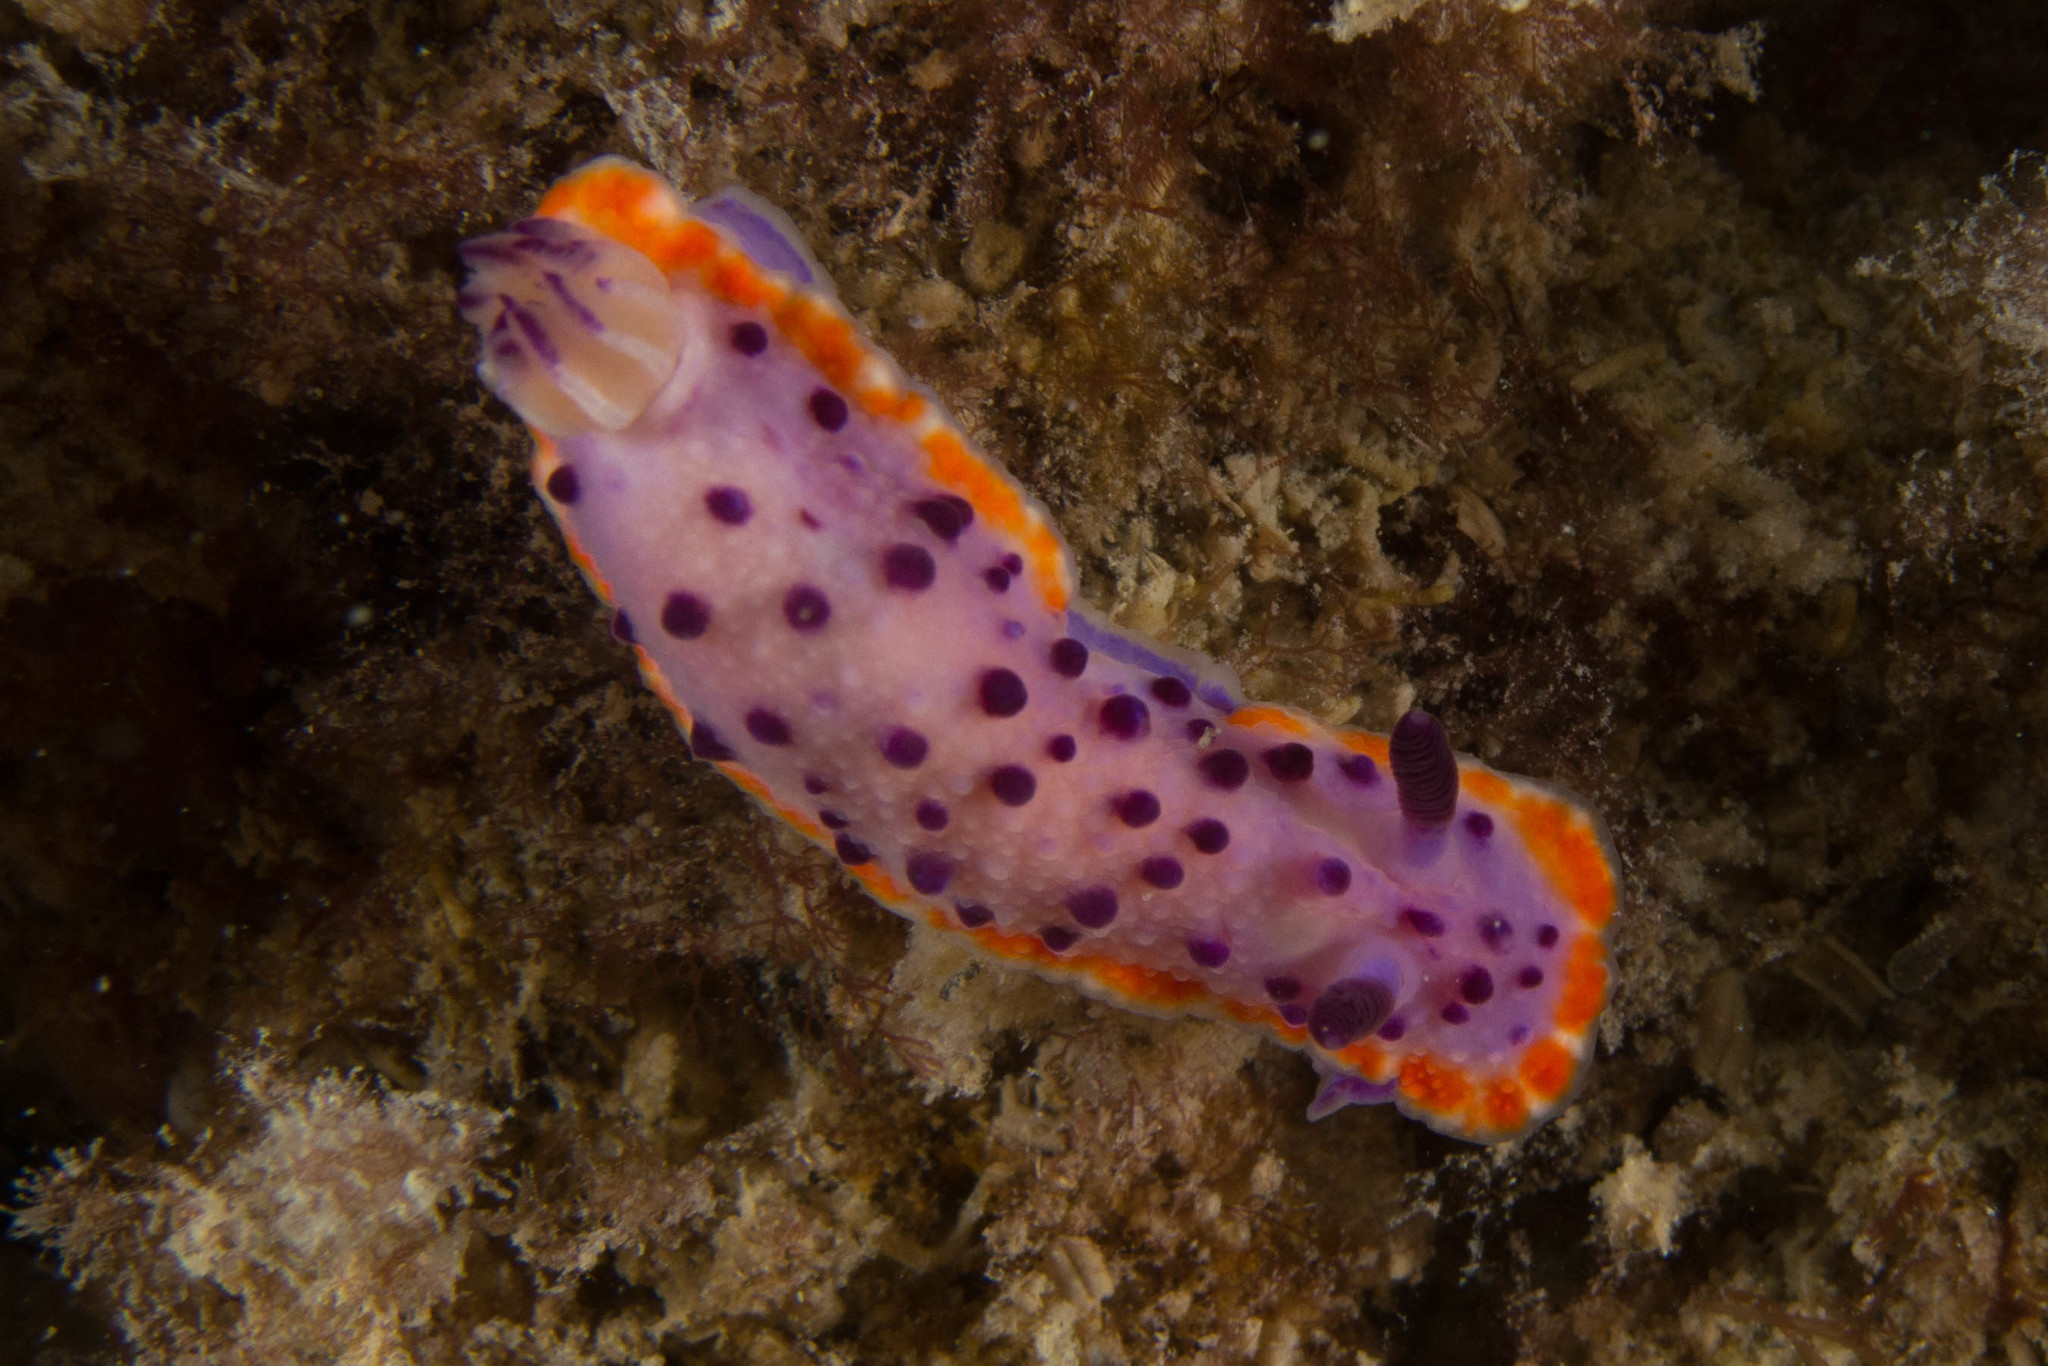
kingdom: Animalia
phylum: Mollusca
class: Gastropoda
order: Nudibranchia
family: Chromodorididae
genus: Mexichromis
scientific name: Mexichromis mariei
